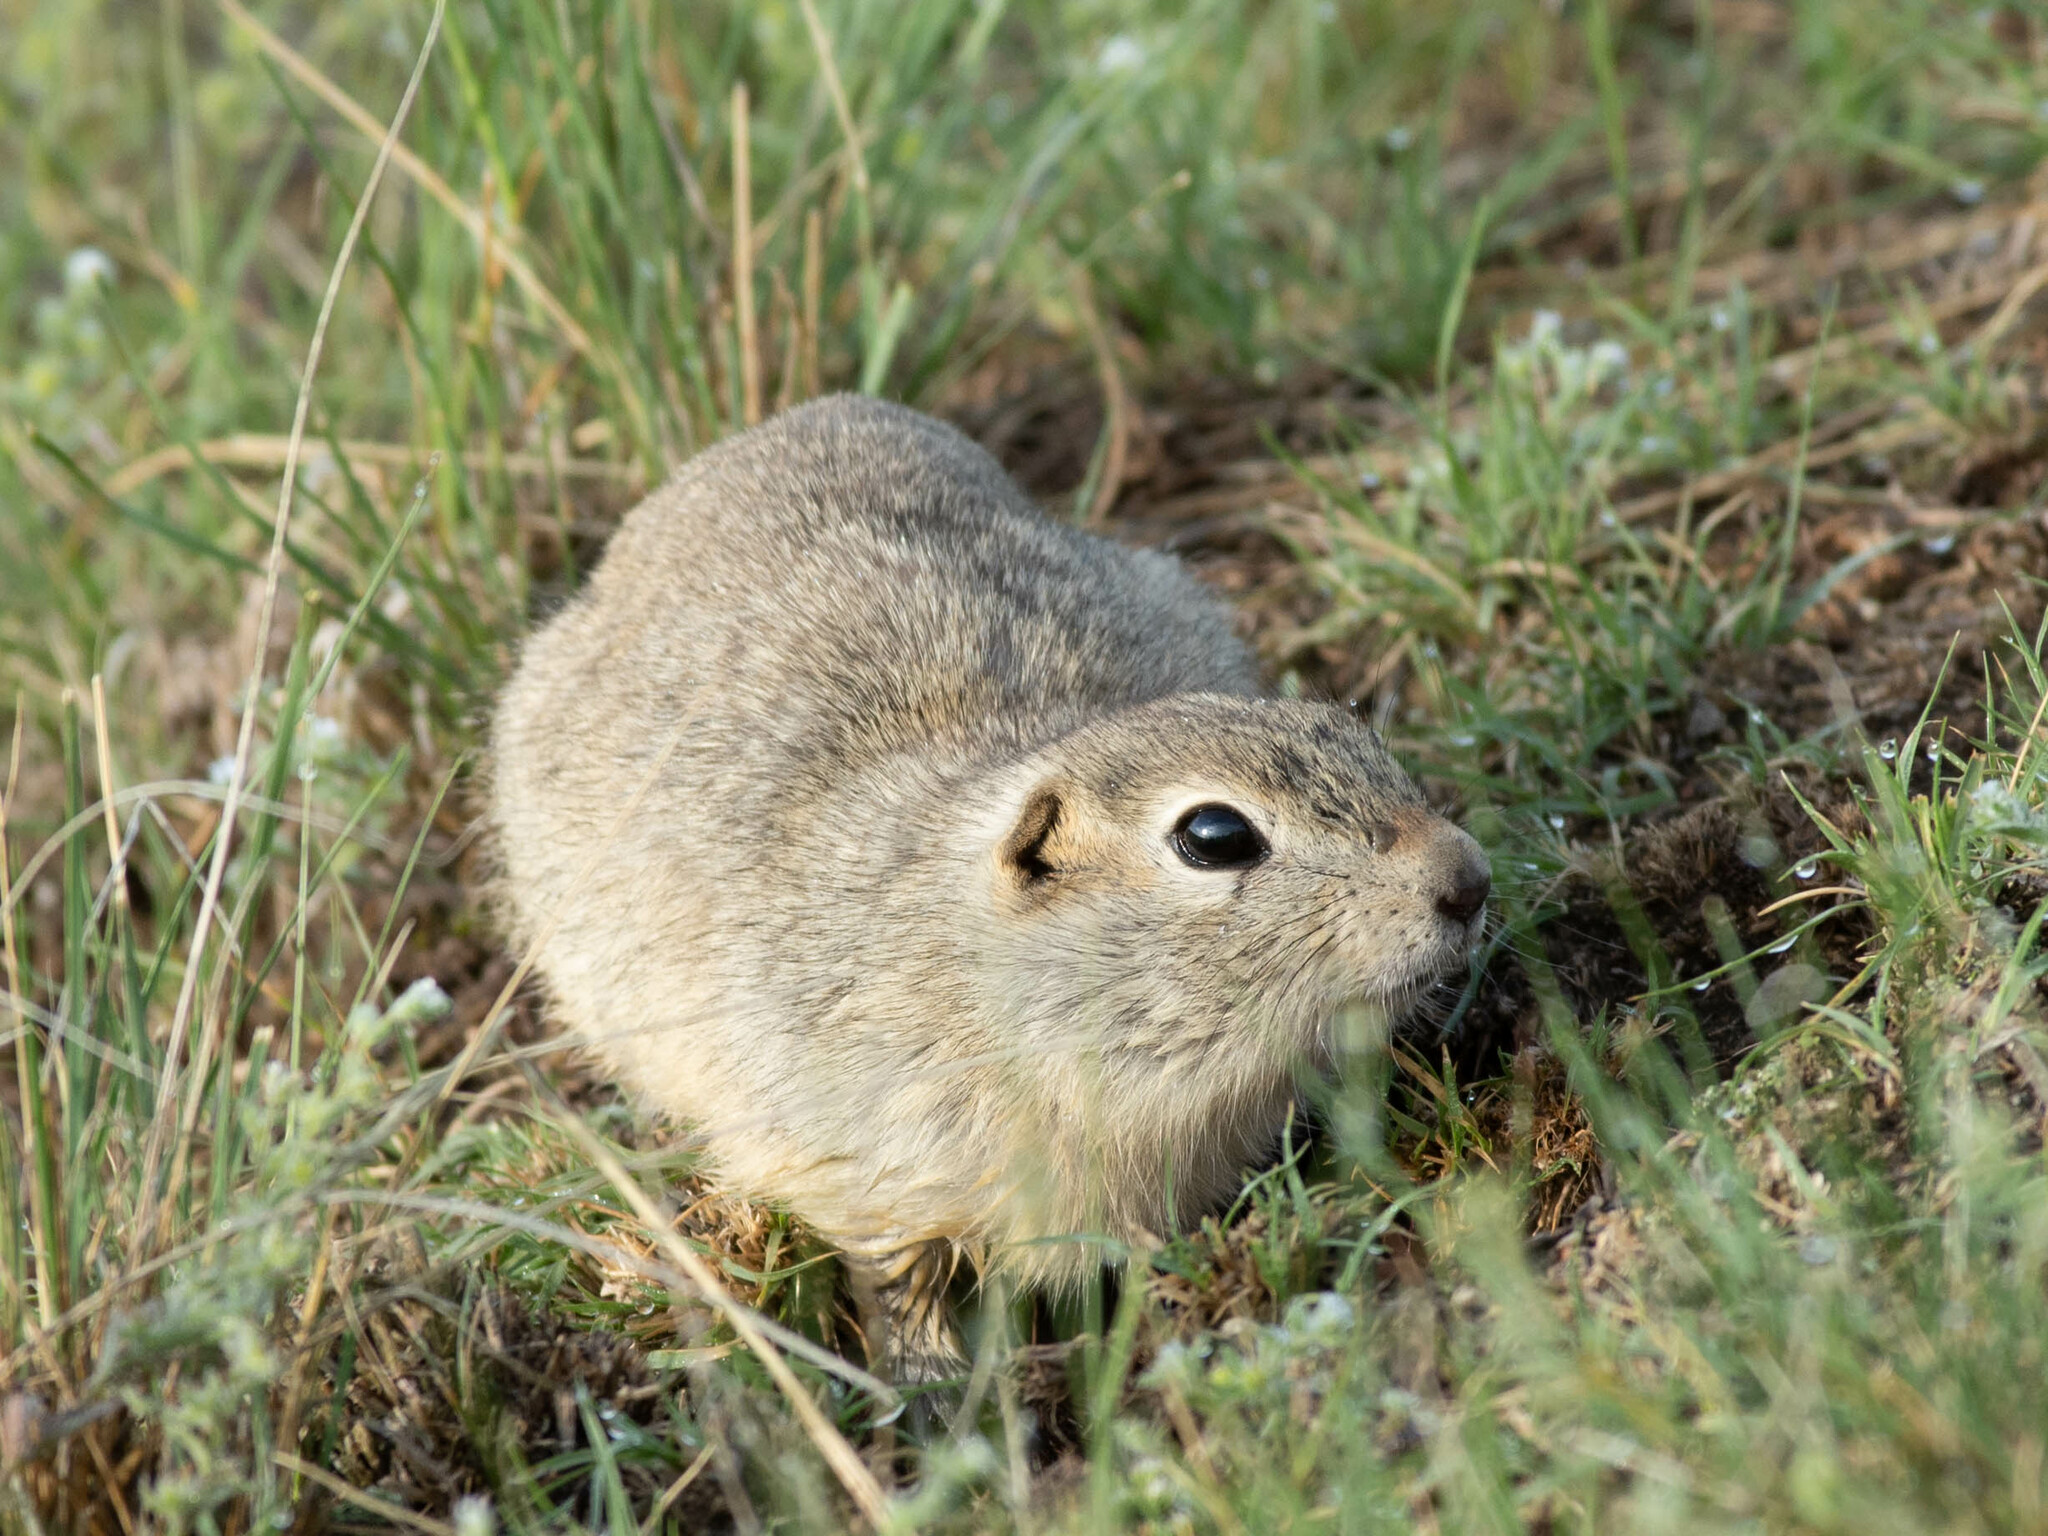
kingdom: Animalia
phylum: Chordata
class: Mammalia
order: Rodentia
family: Sciuridae
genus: Urocitellus
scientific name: Urocitellus richardsonii
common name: Richardson's ground squirrel
